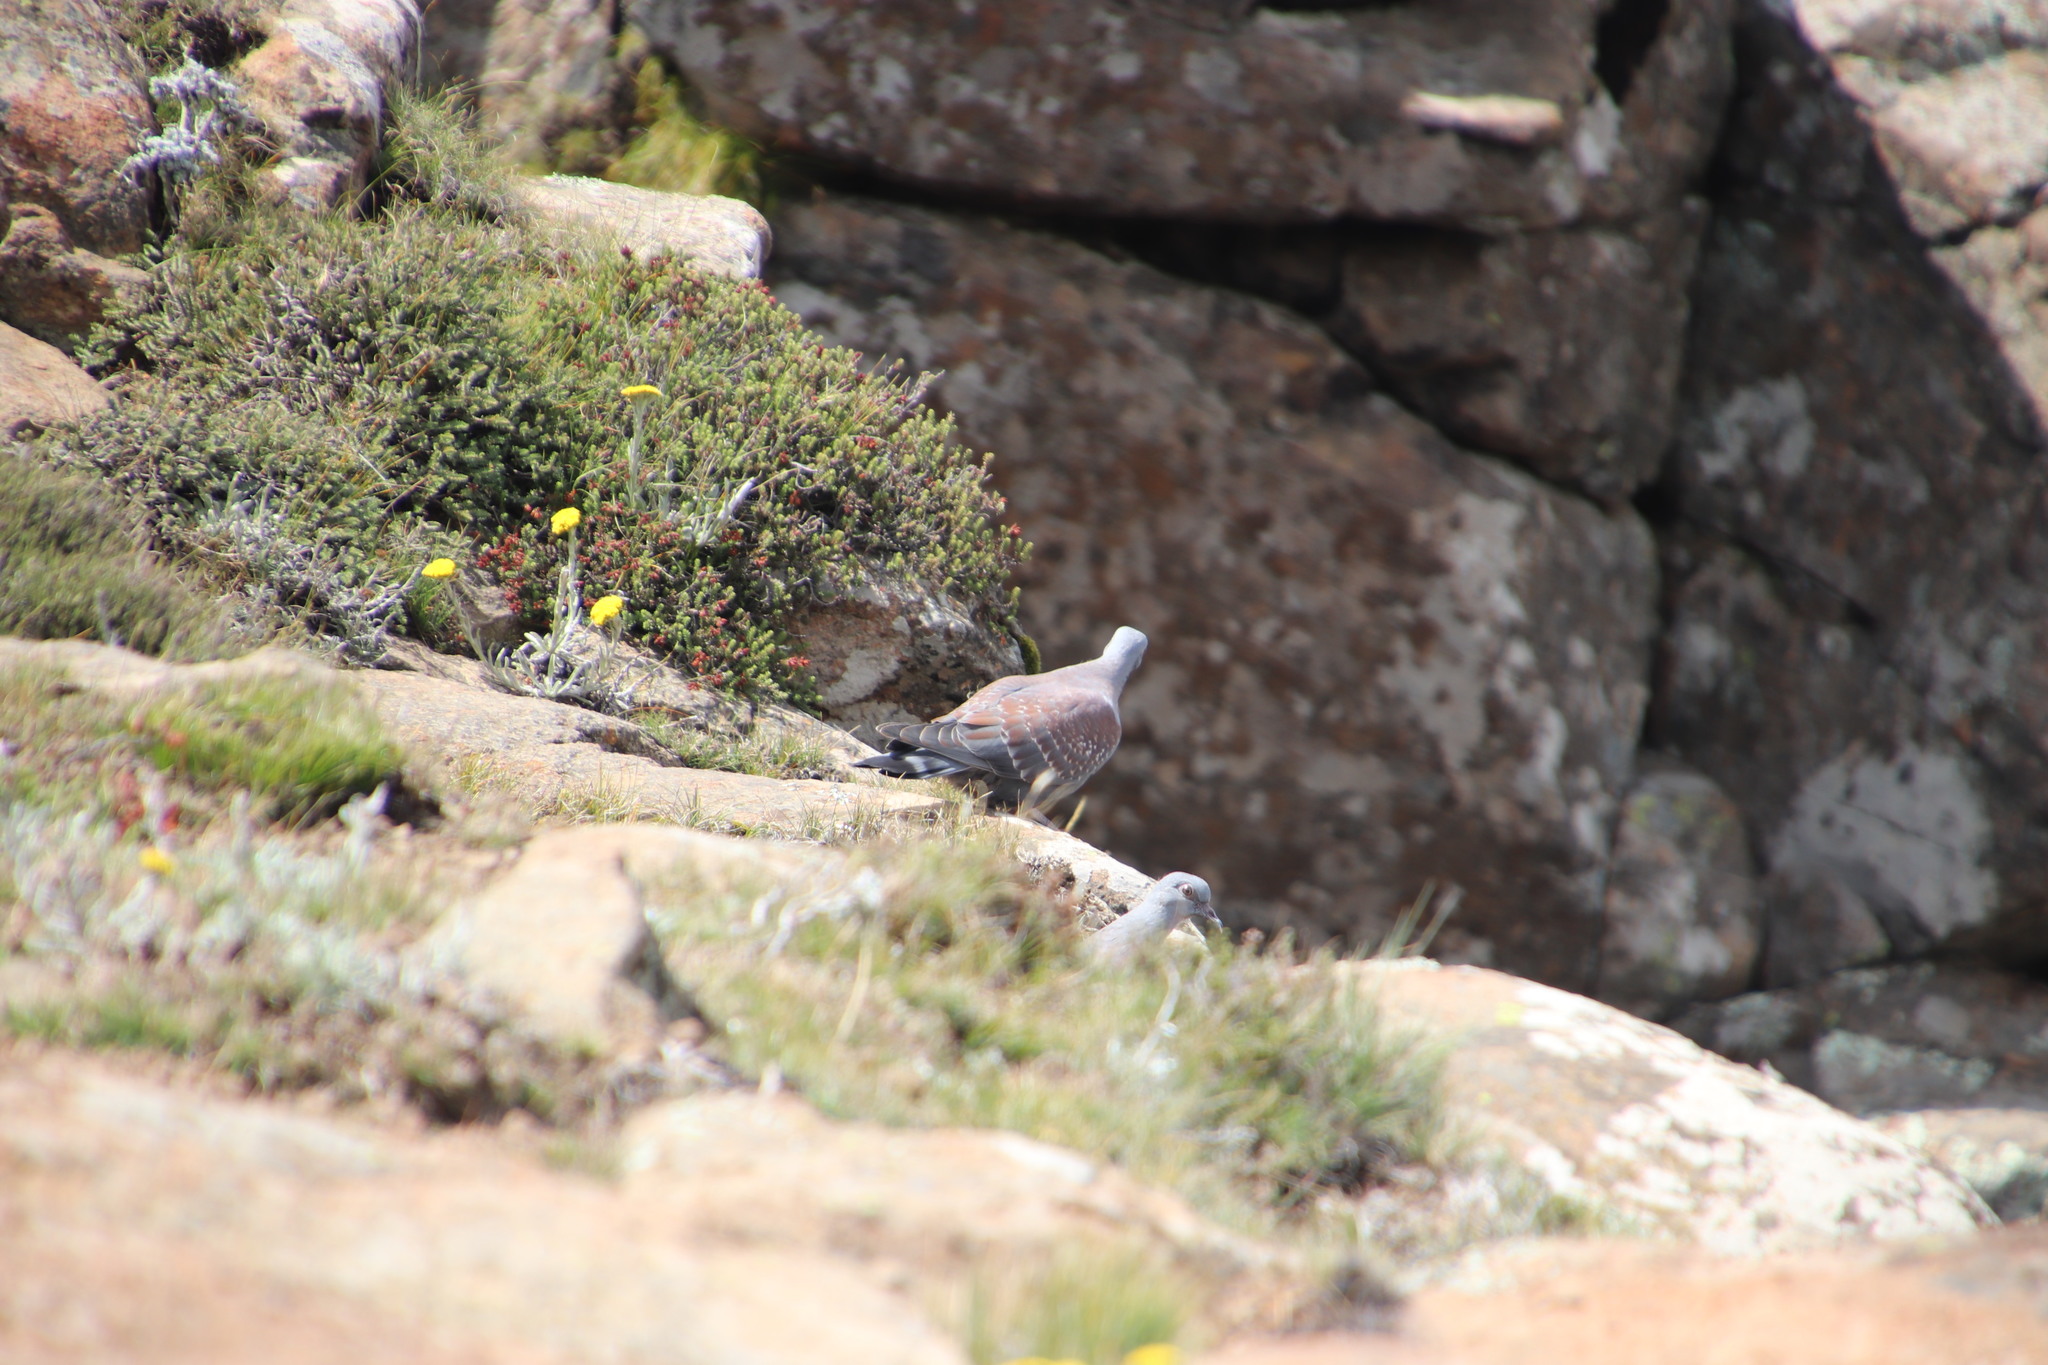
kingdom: Animalia
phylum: Chordata
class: Aves
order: Columbiformes
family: Columbidae
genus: Columba
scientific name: Columba guinea
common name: Speckled pigeon
